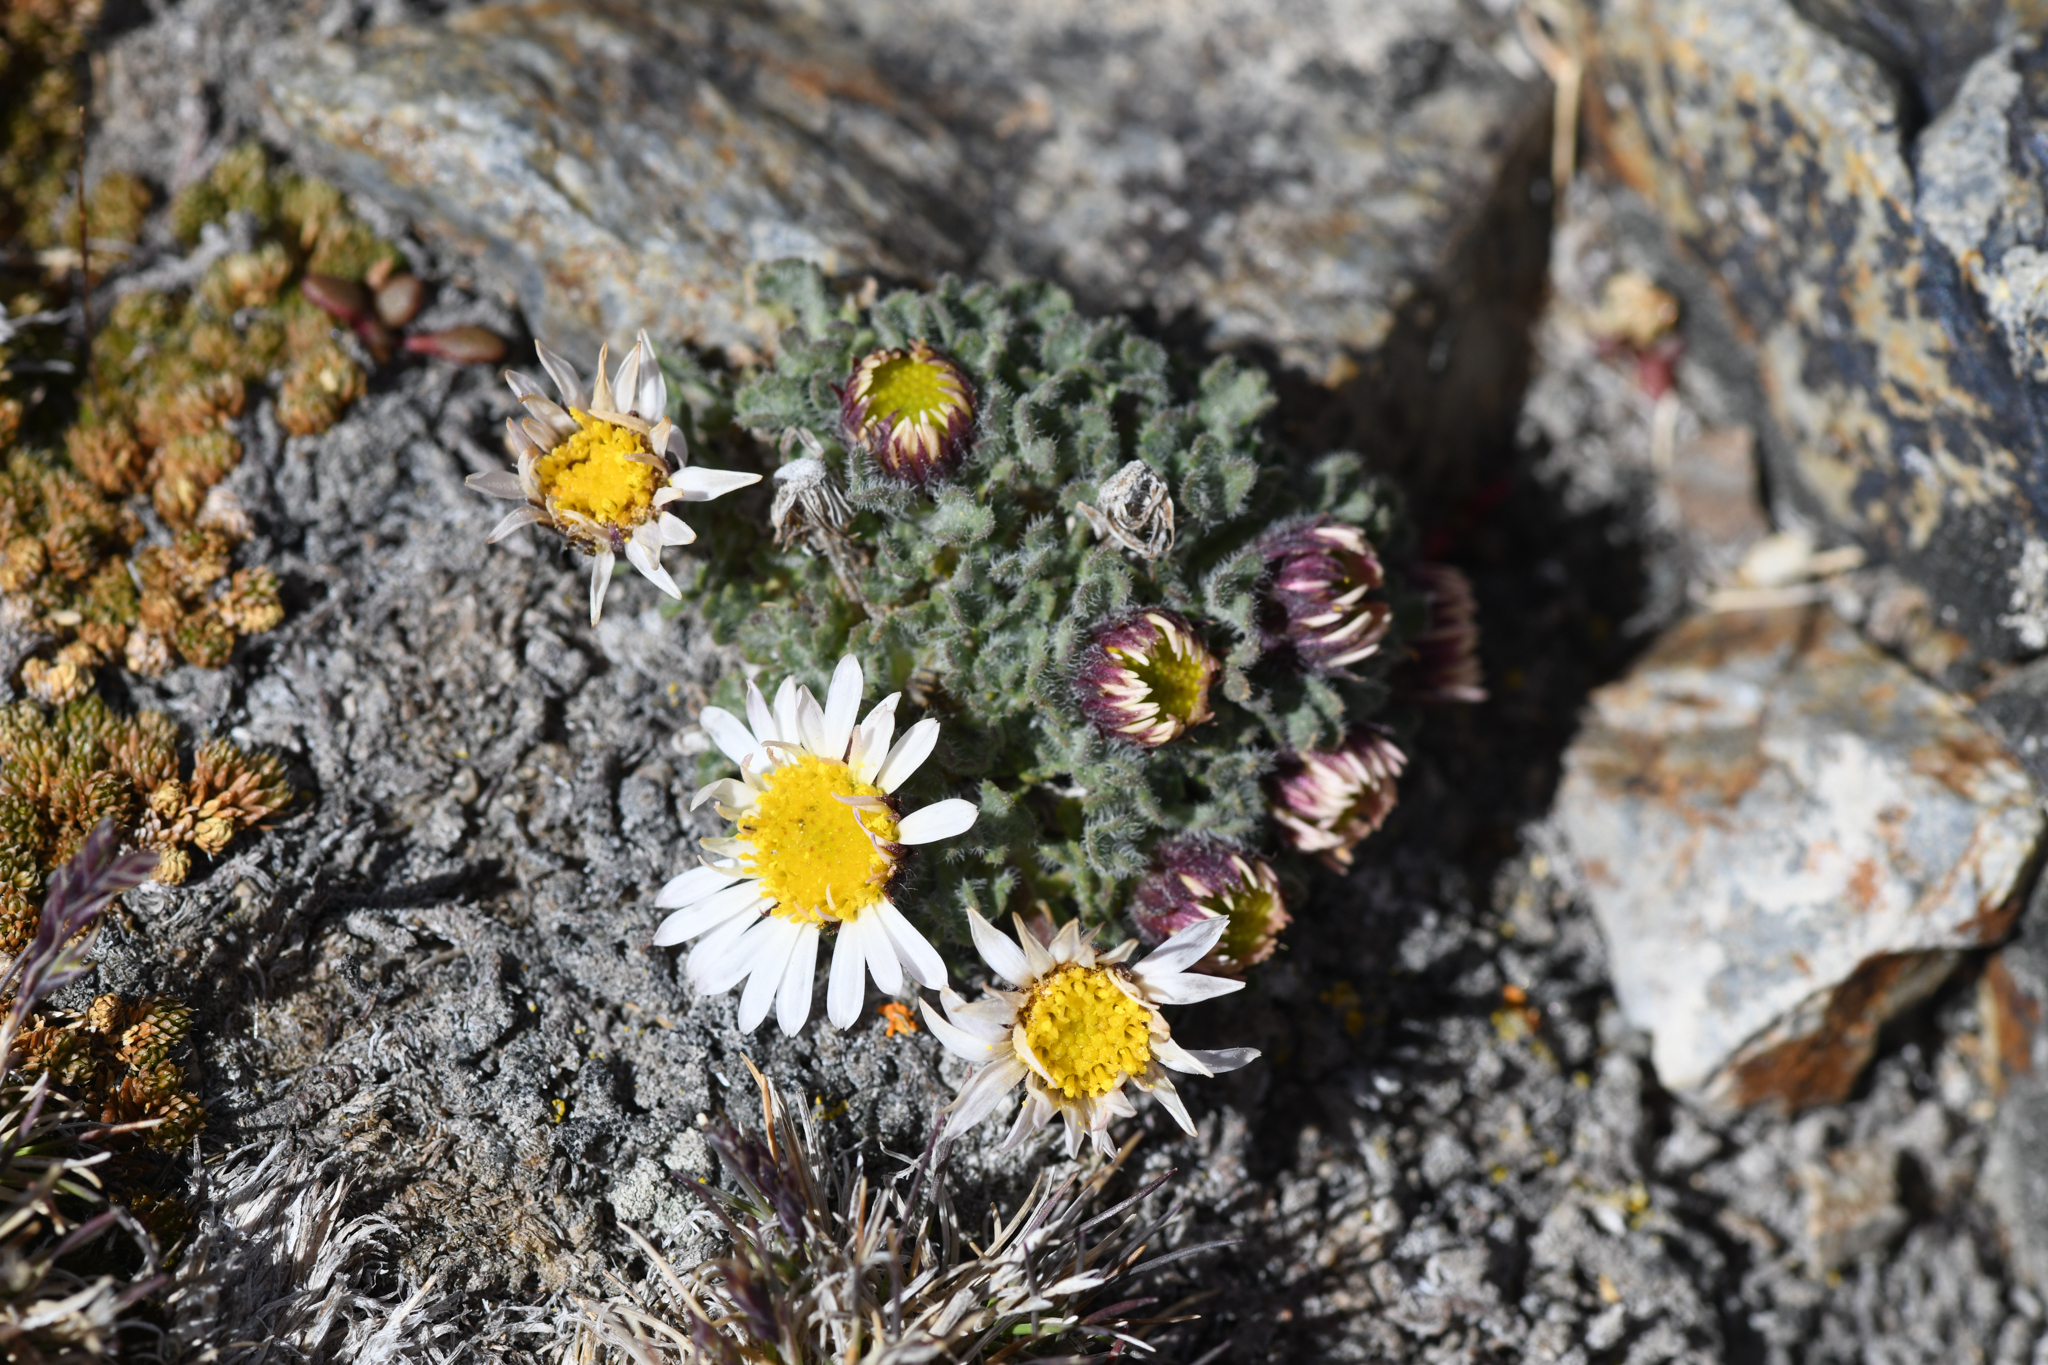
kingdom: Plantae
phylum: Tracheophyta
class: Magnoliopsida
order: Asterales
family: Asteraceae
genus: Erigeron
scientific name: Erigeron vagus
